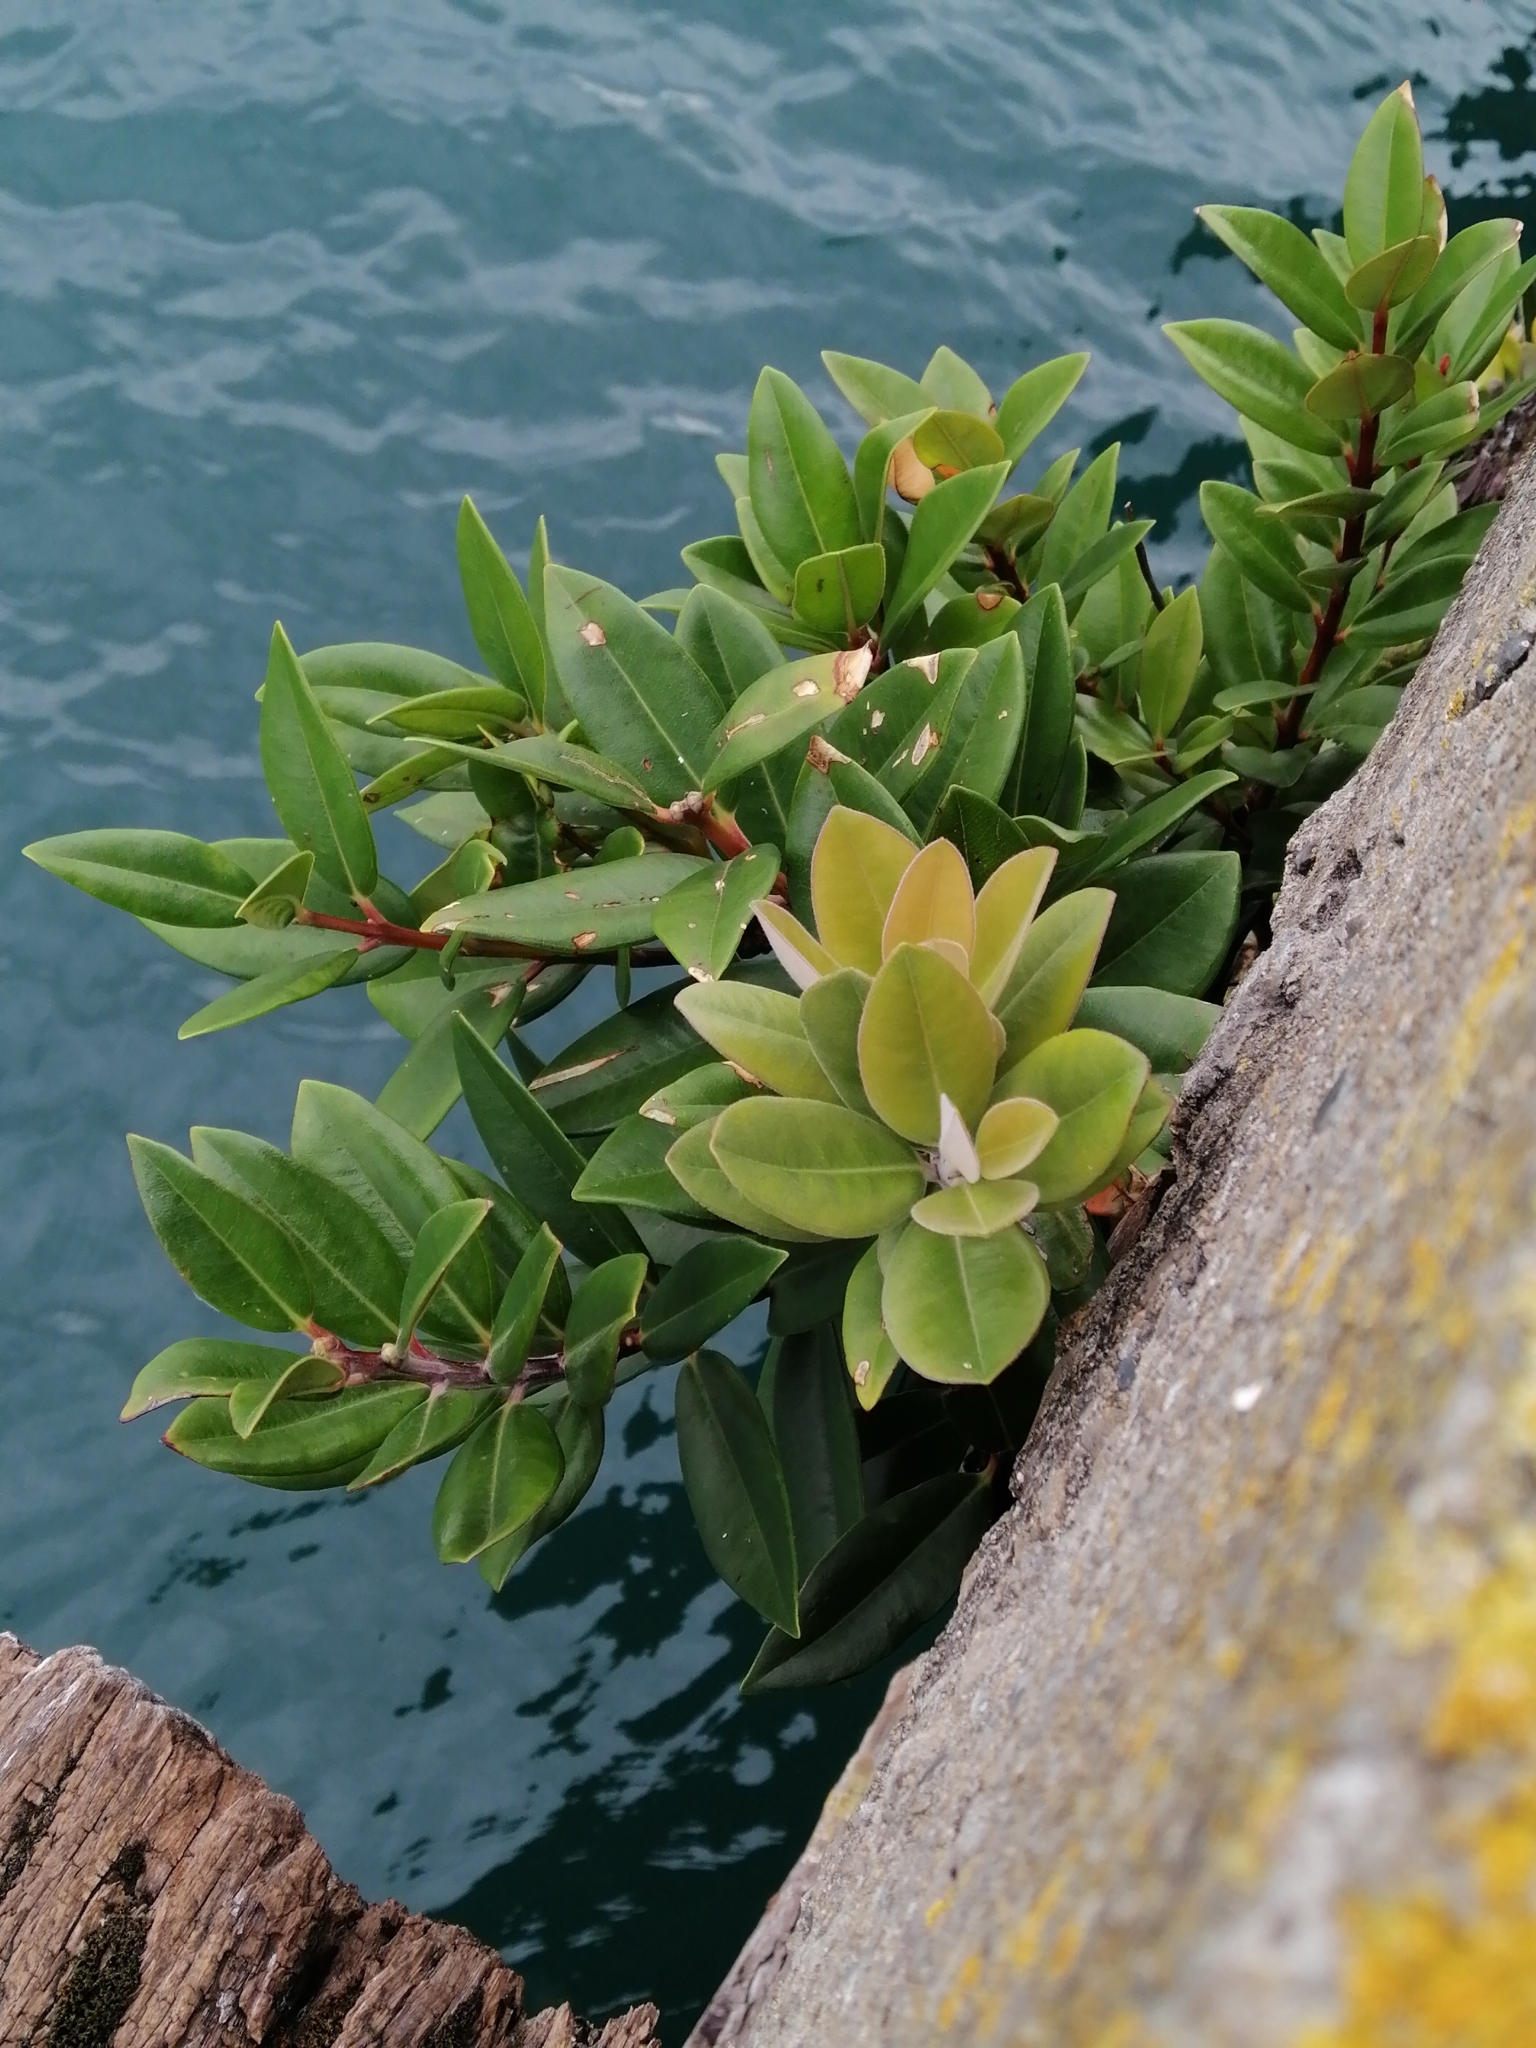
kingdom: Plantae
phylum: Tracheophyta
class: Magnoliopsida
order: Myrtales
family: Myrtaceae
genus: Metrosideros
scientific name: Metrosideros excelsa
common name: New zealand christmastree
